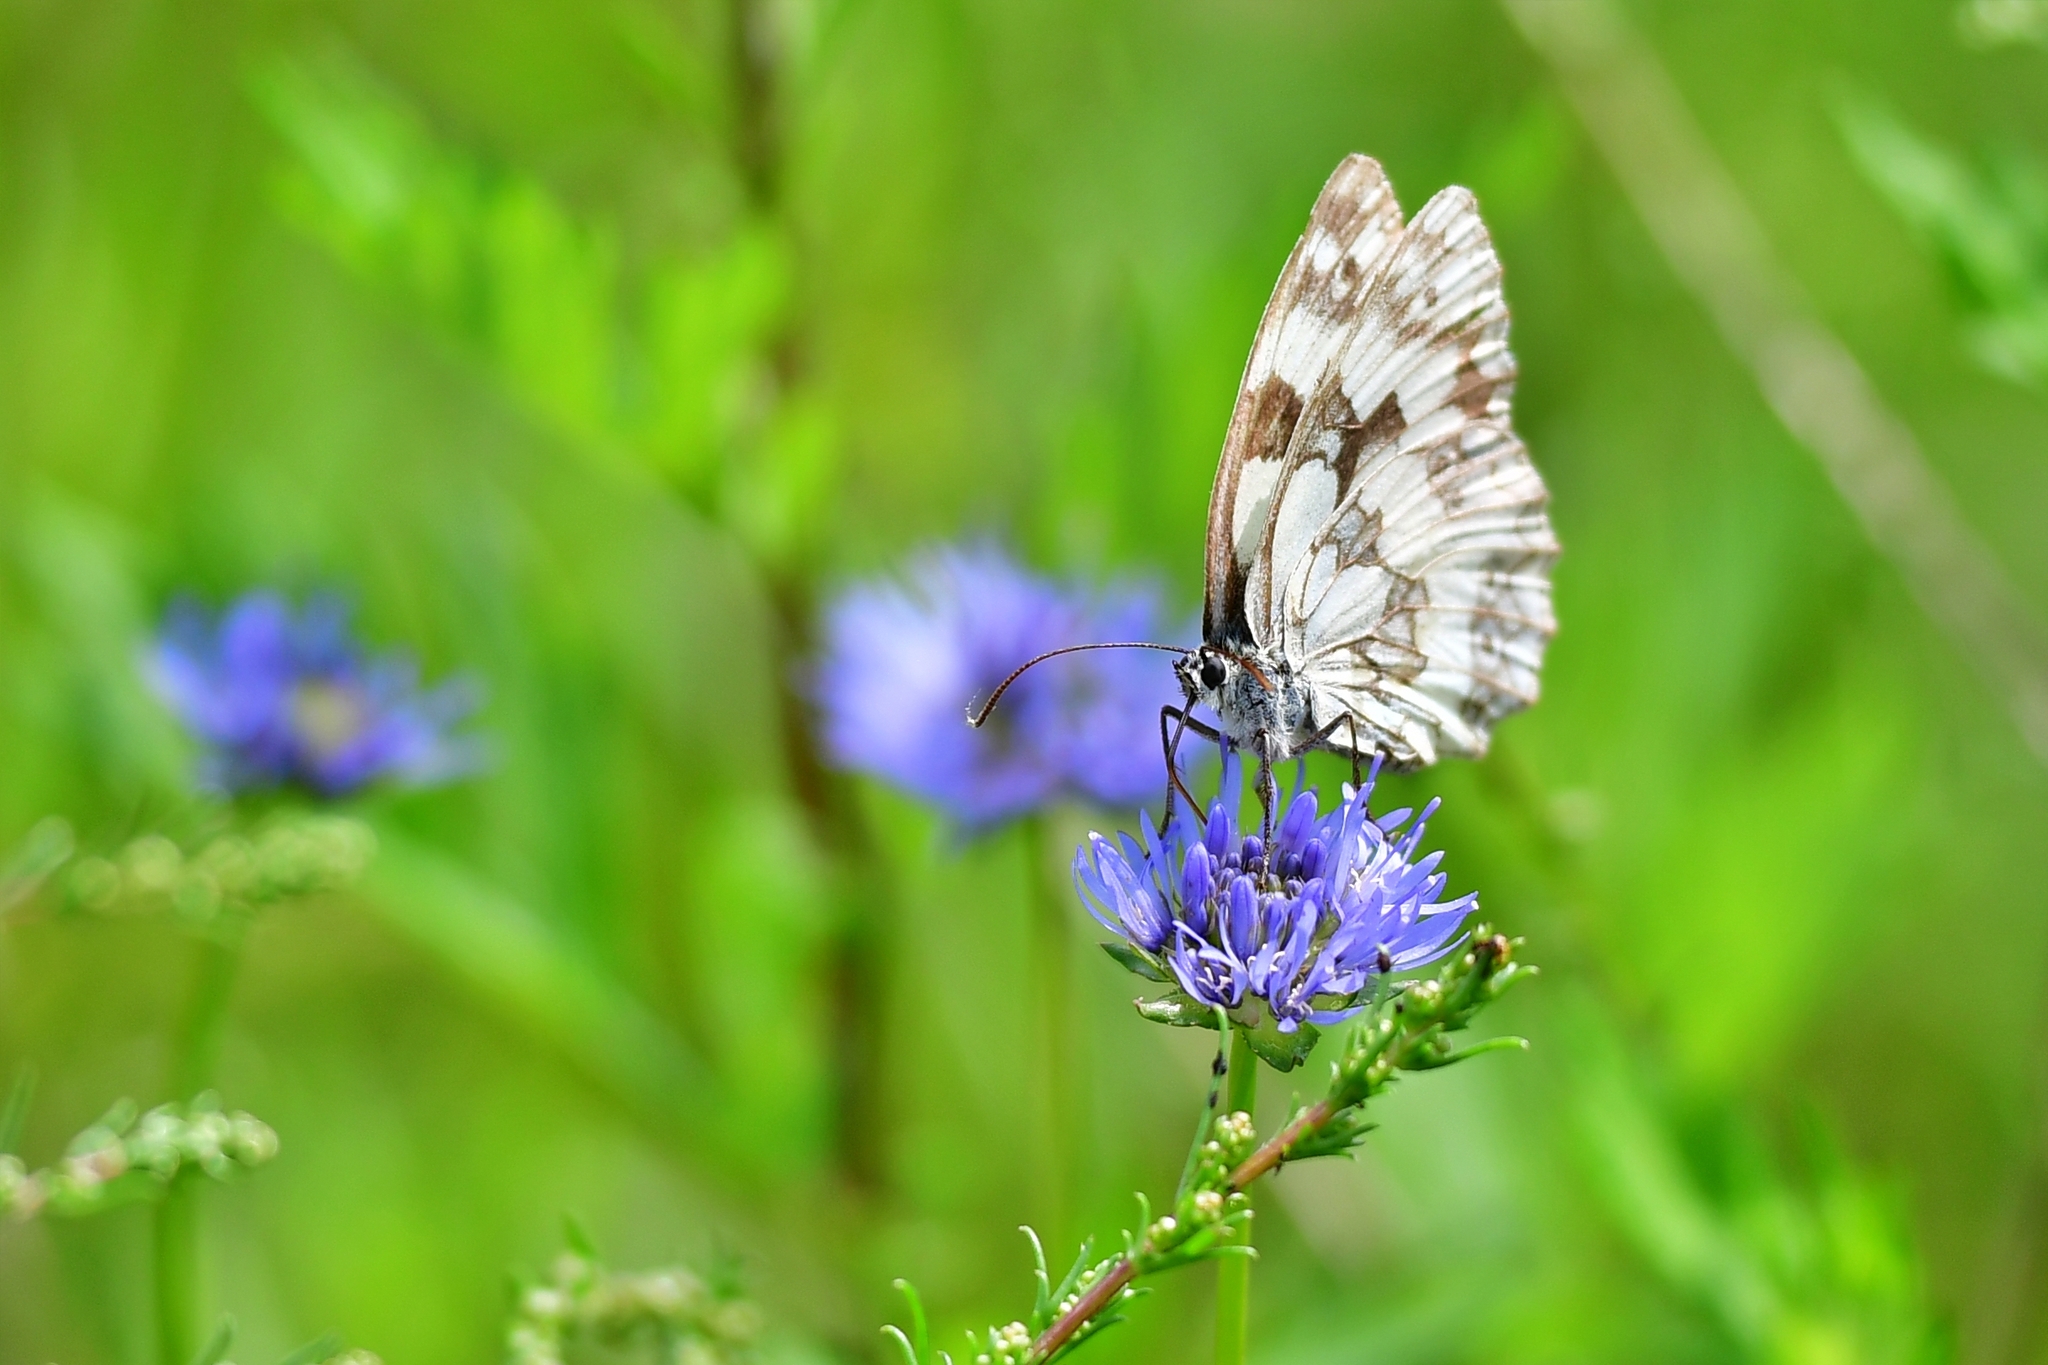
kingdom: Animalia
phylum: Arthropoda
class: Insecta
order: Lepidoptera
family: Nymphalidae
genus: Melanargia
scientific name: Melanargia galathea
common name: Marbled white
